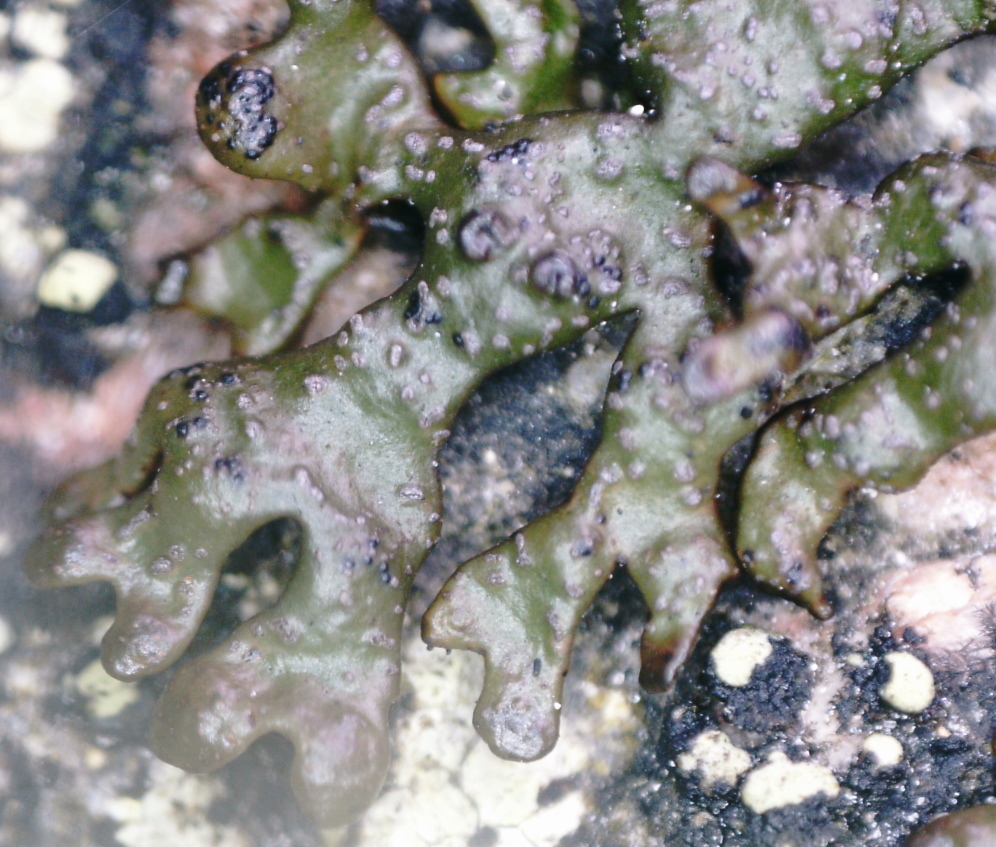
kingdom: Fungi
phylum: Ascomycota
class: Lecanoromycetes
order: Lecanorales
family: Parmeliaceae
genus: Melanelia
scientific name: Melanelia stygia
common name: Alpine camouflage lichen
